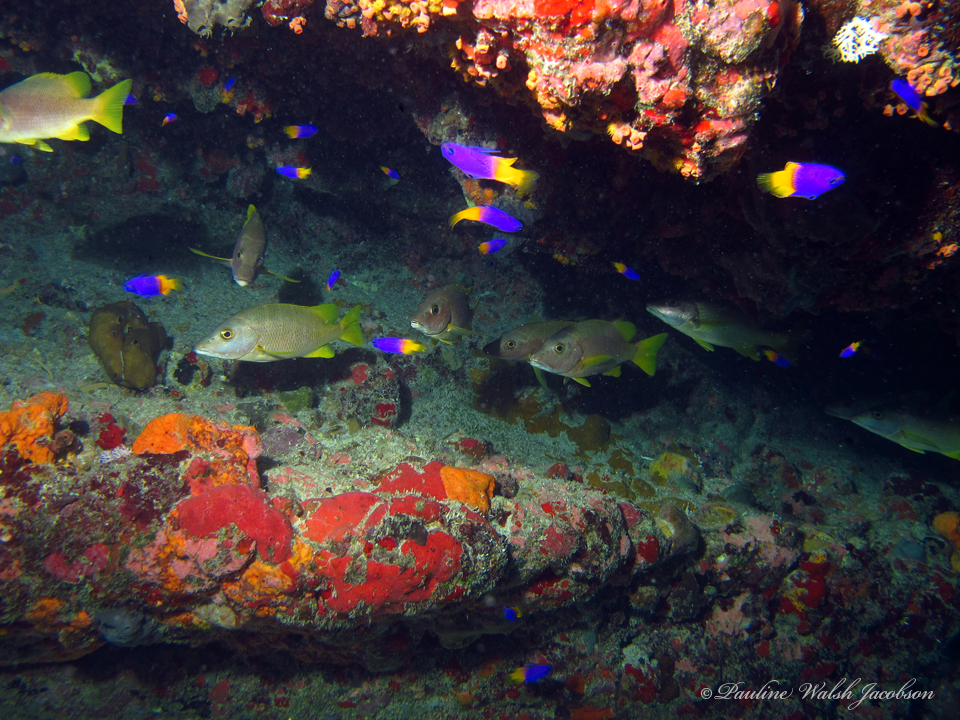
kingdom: Animalia
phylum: Chordata
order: Perciformes
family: Lutjanidae
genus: Lutjanus
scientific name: Lutjanus apodus
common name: Schoolmaster
